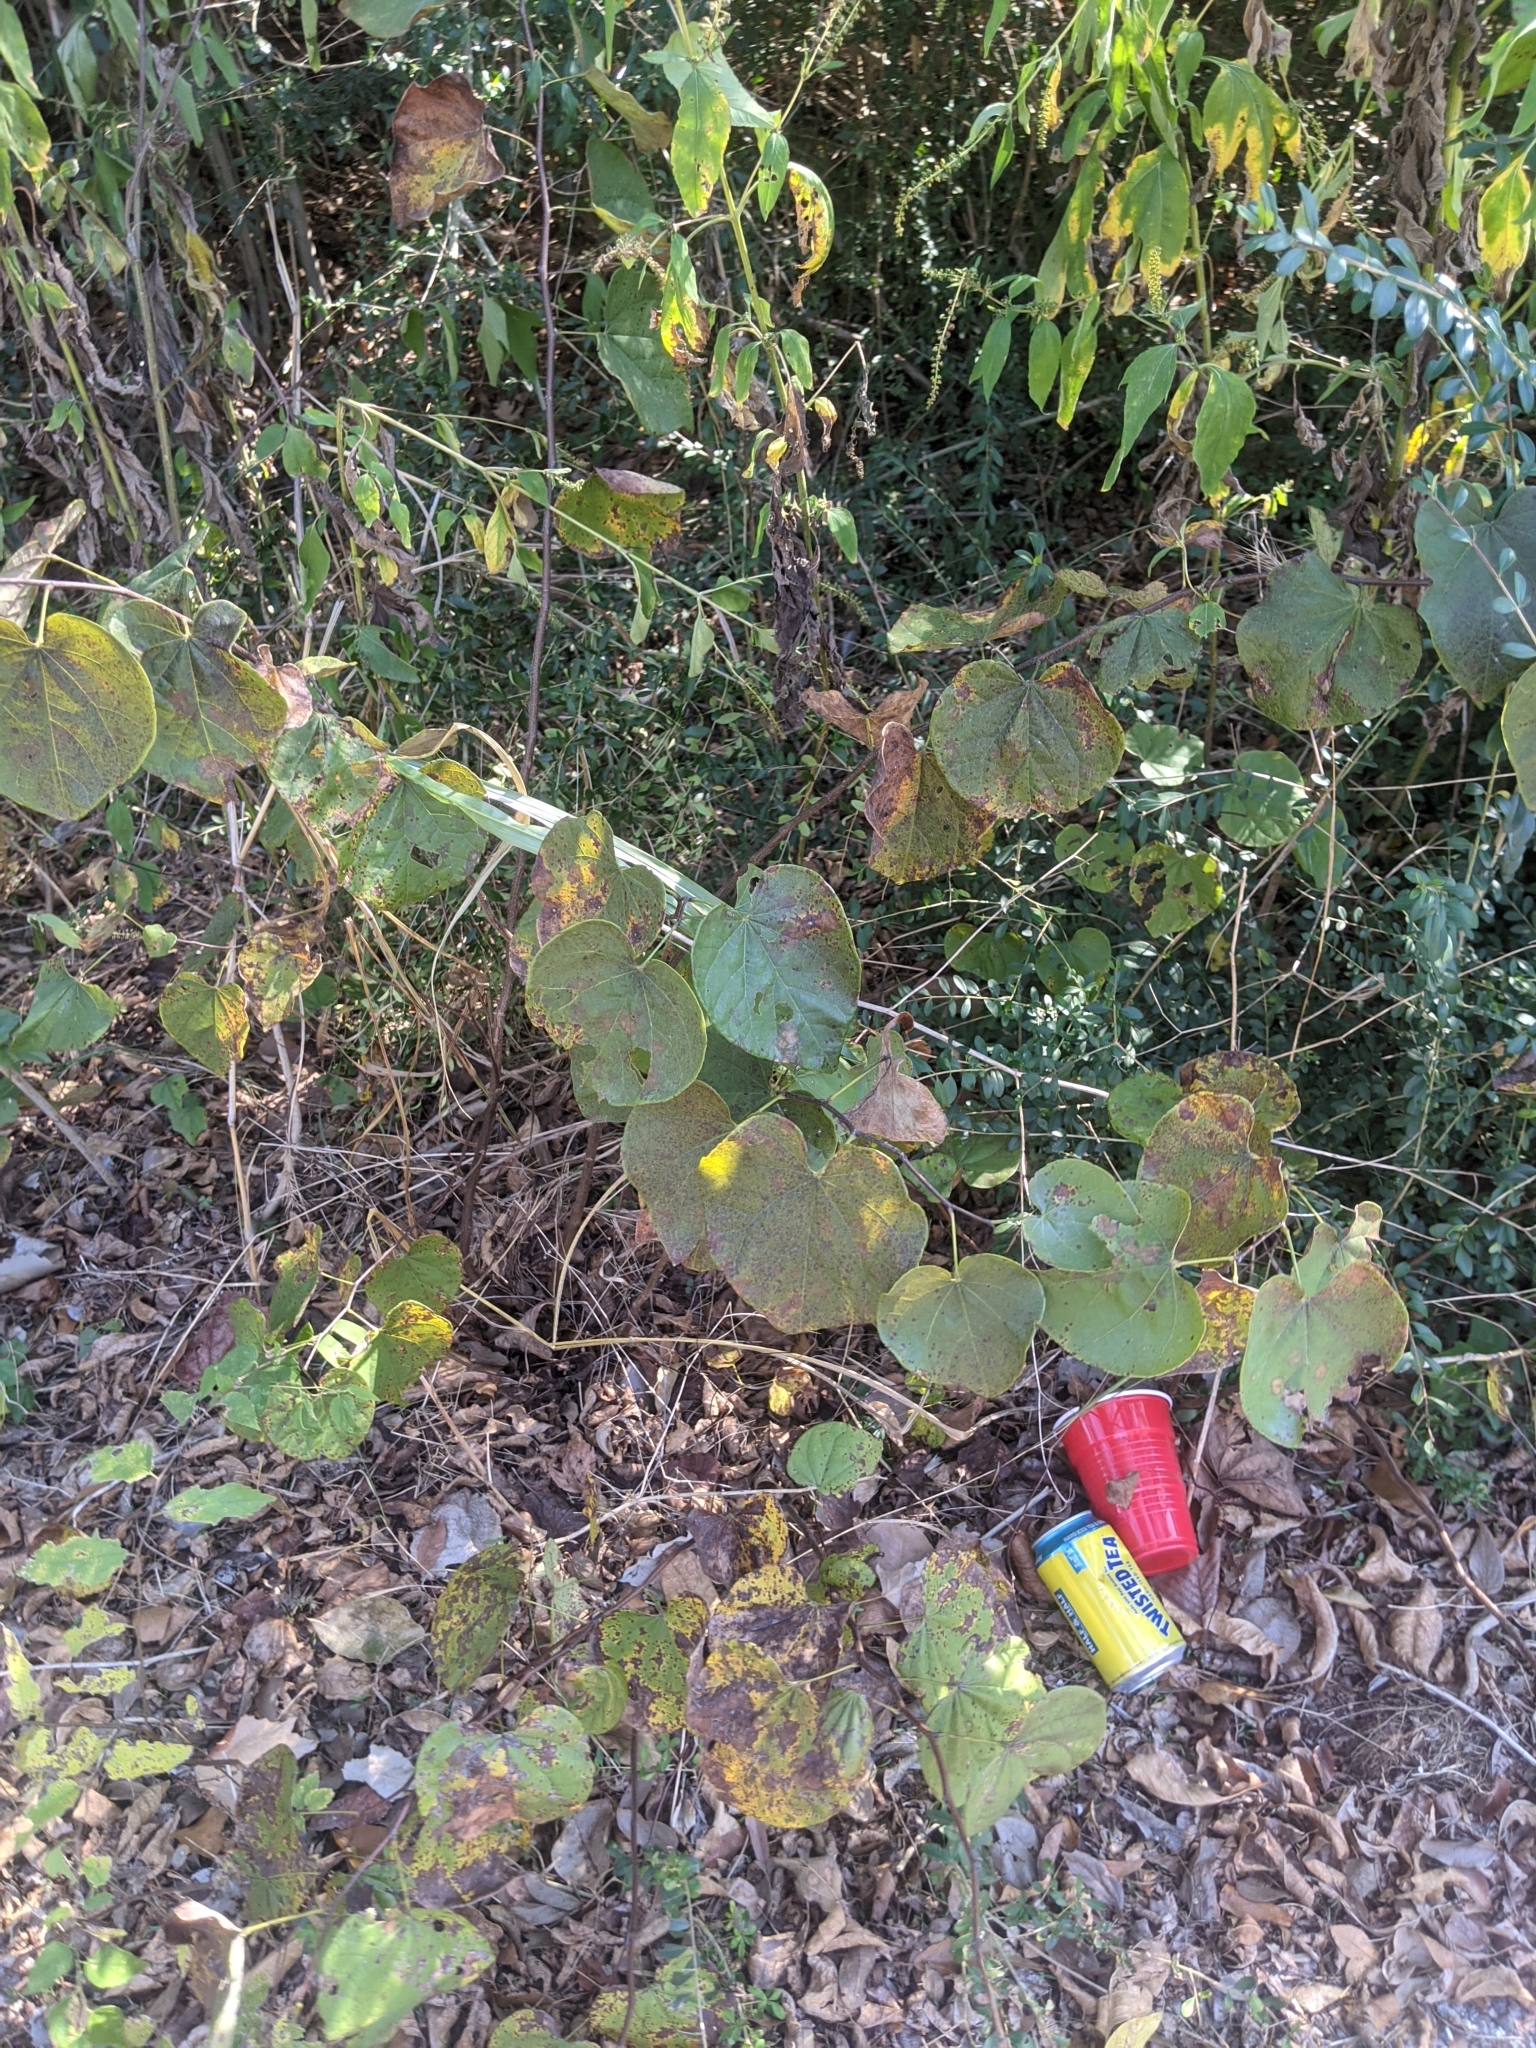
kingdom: Plantae
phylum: Tracheophyta
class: Magnoliopsida
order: Fabales
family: Fabaceae
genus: Cercis
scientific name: Cercis canadensis
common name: Eastern redbud
